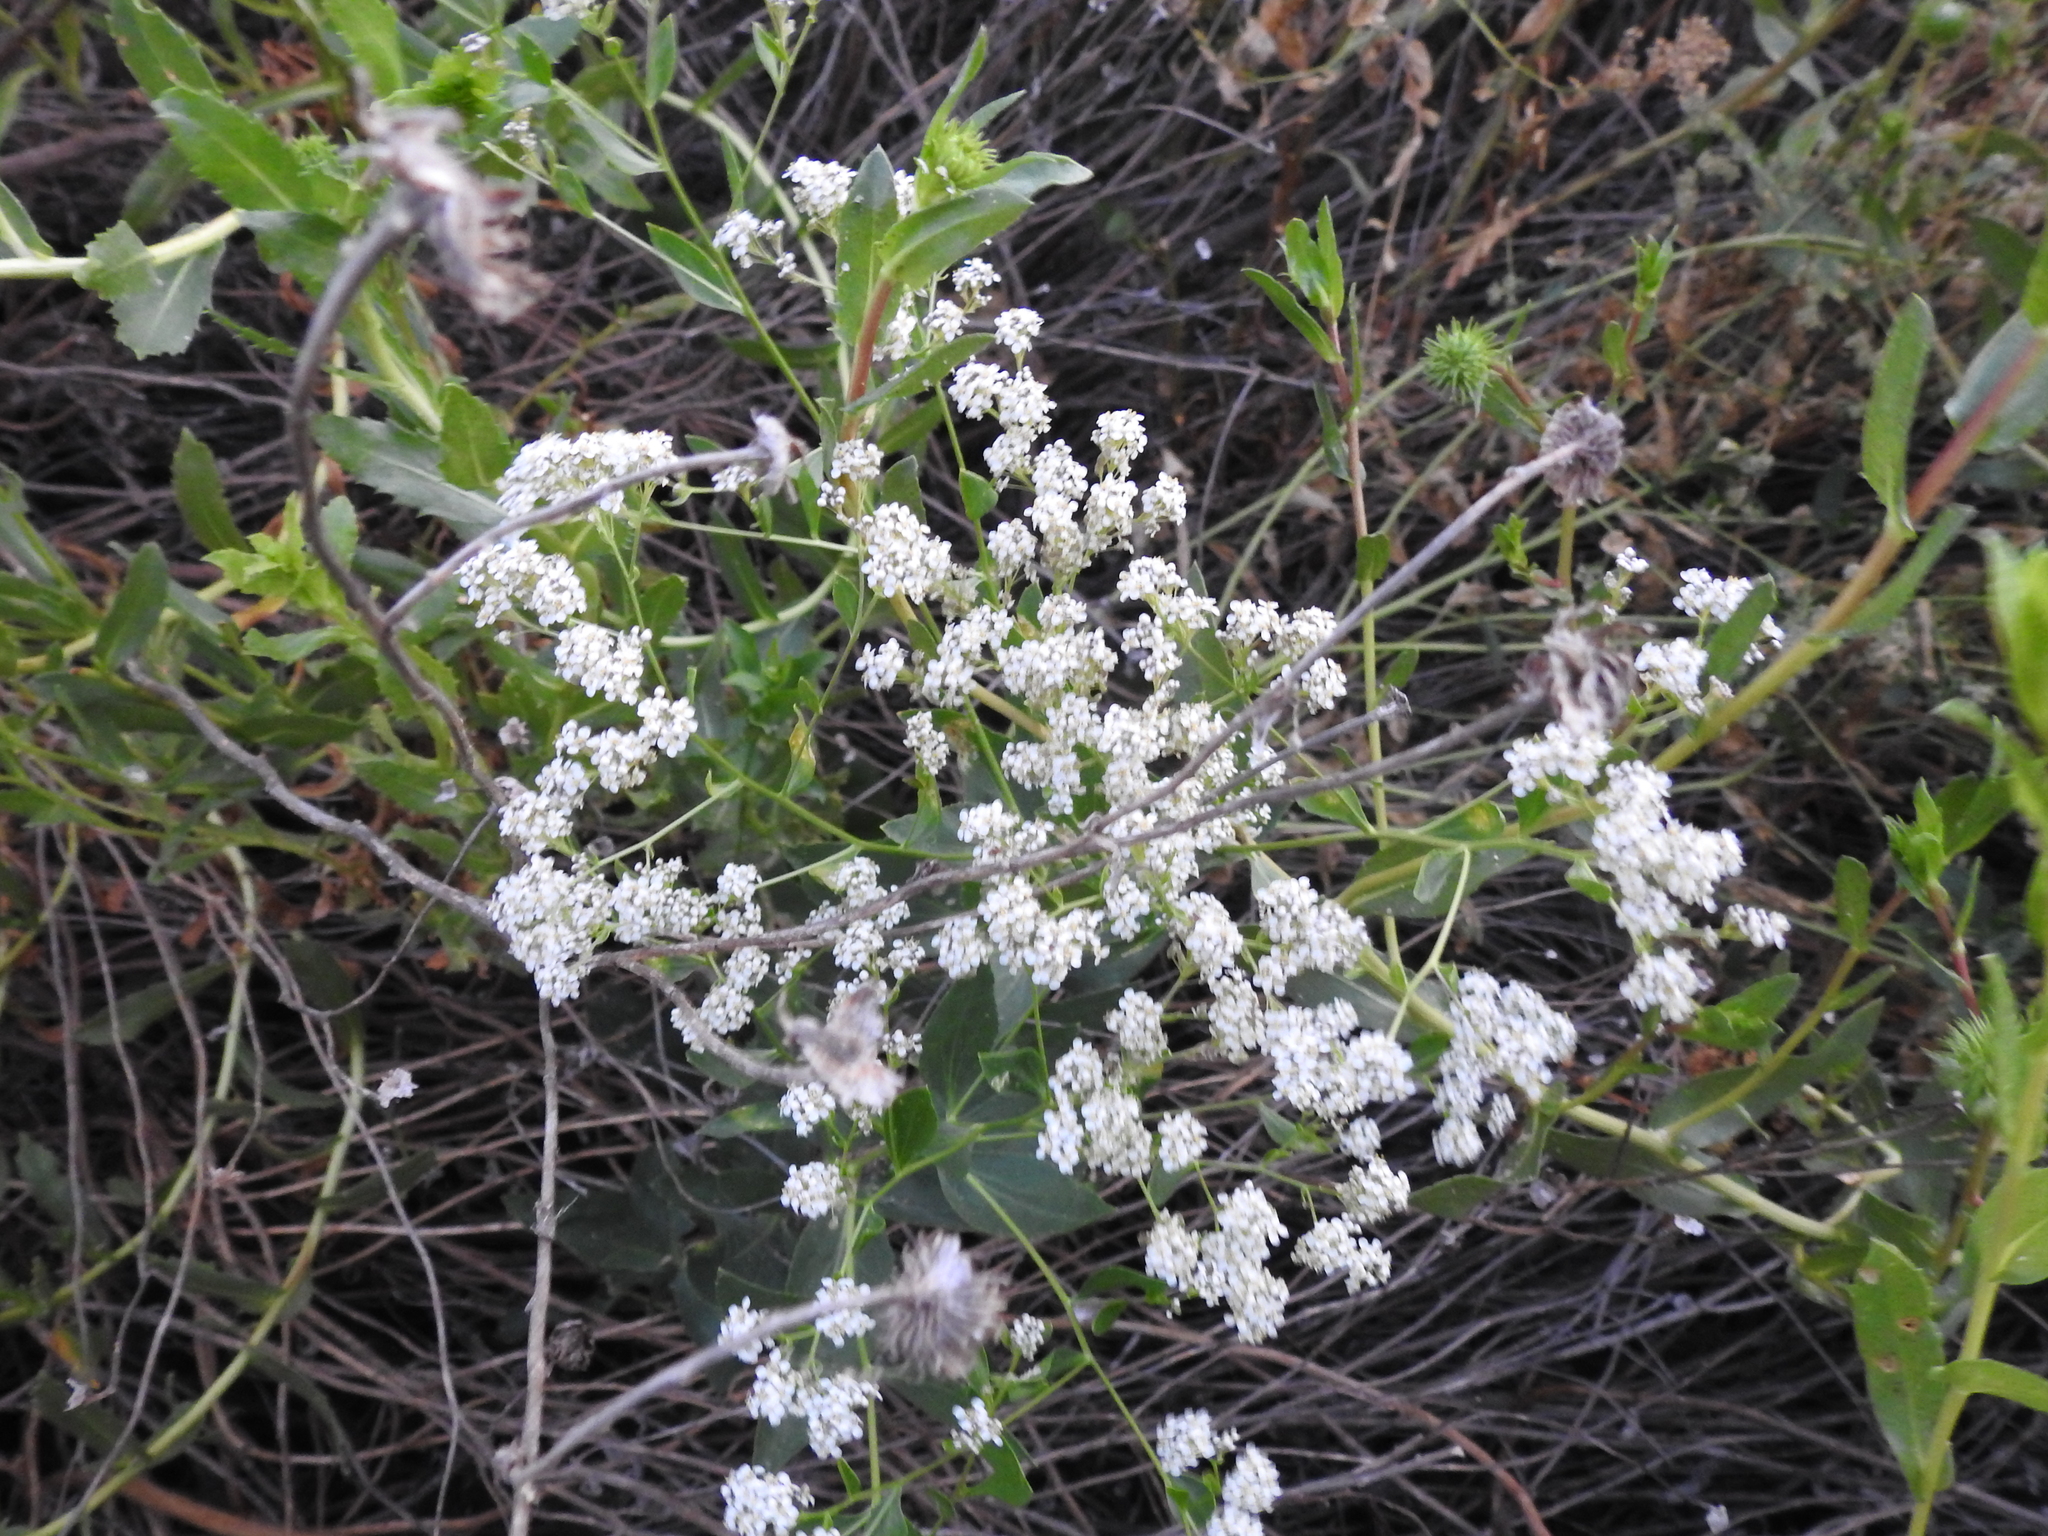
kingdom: Plantae
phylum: Tracheophyta
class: Magnoliopsida
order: Brassicales
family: Brassicaceae
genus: Lepidium
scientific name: Lepidium latifolium
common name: Dittander
